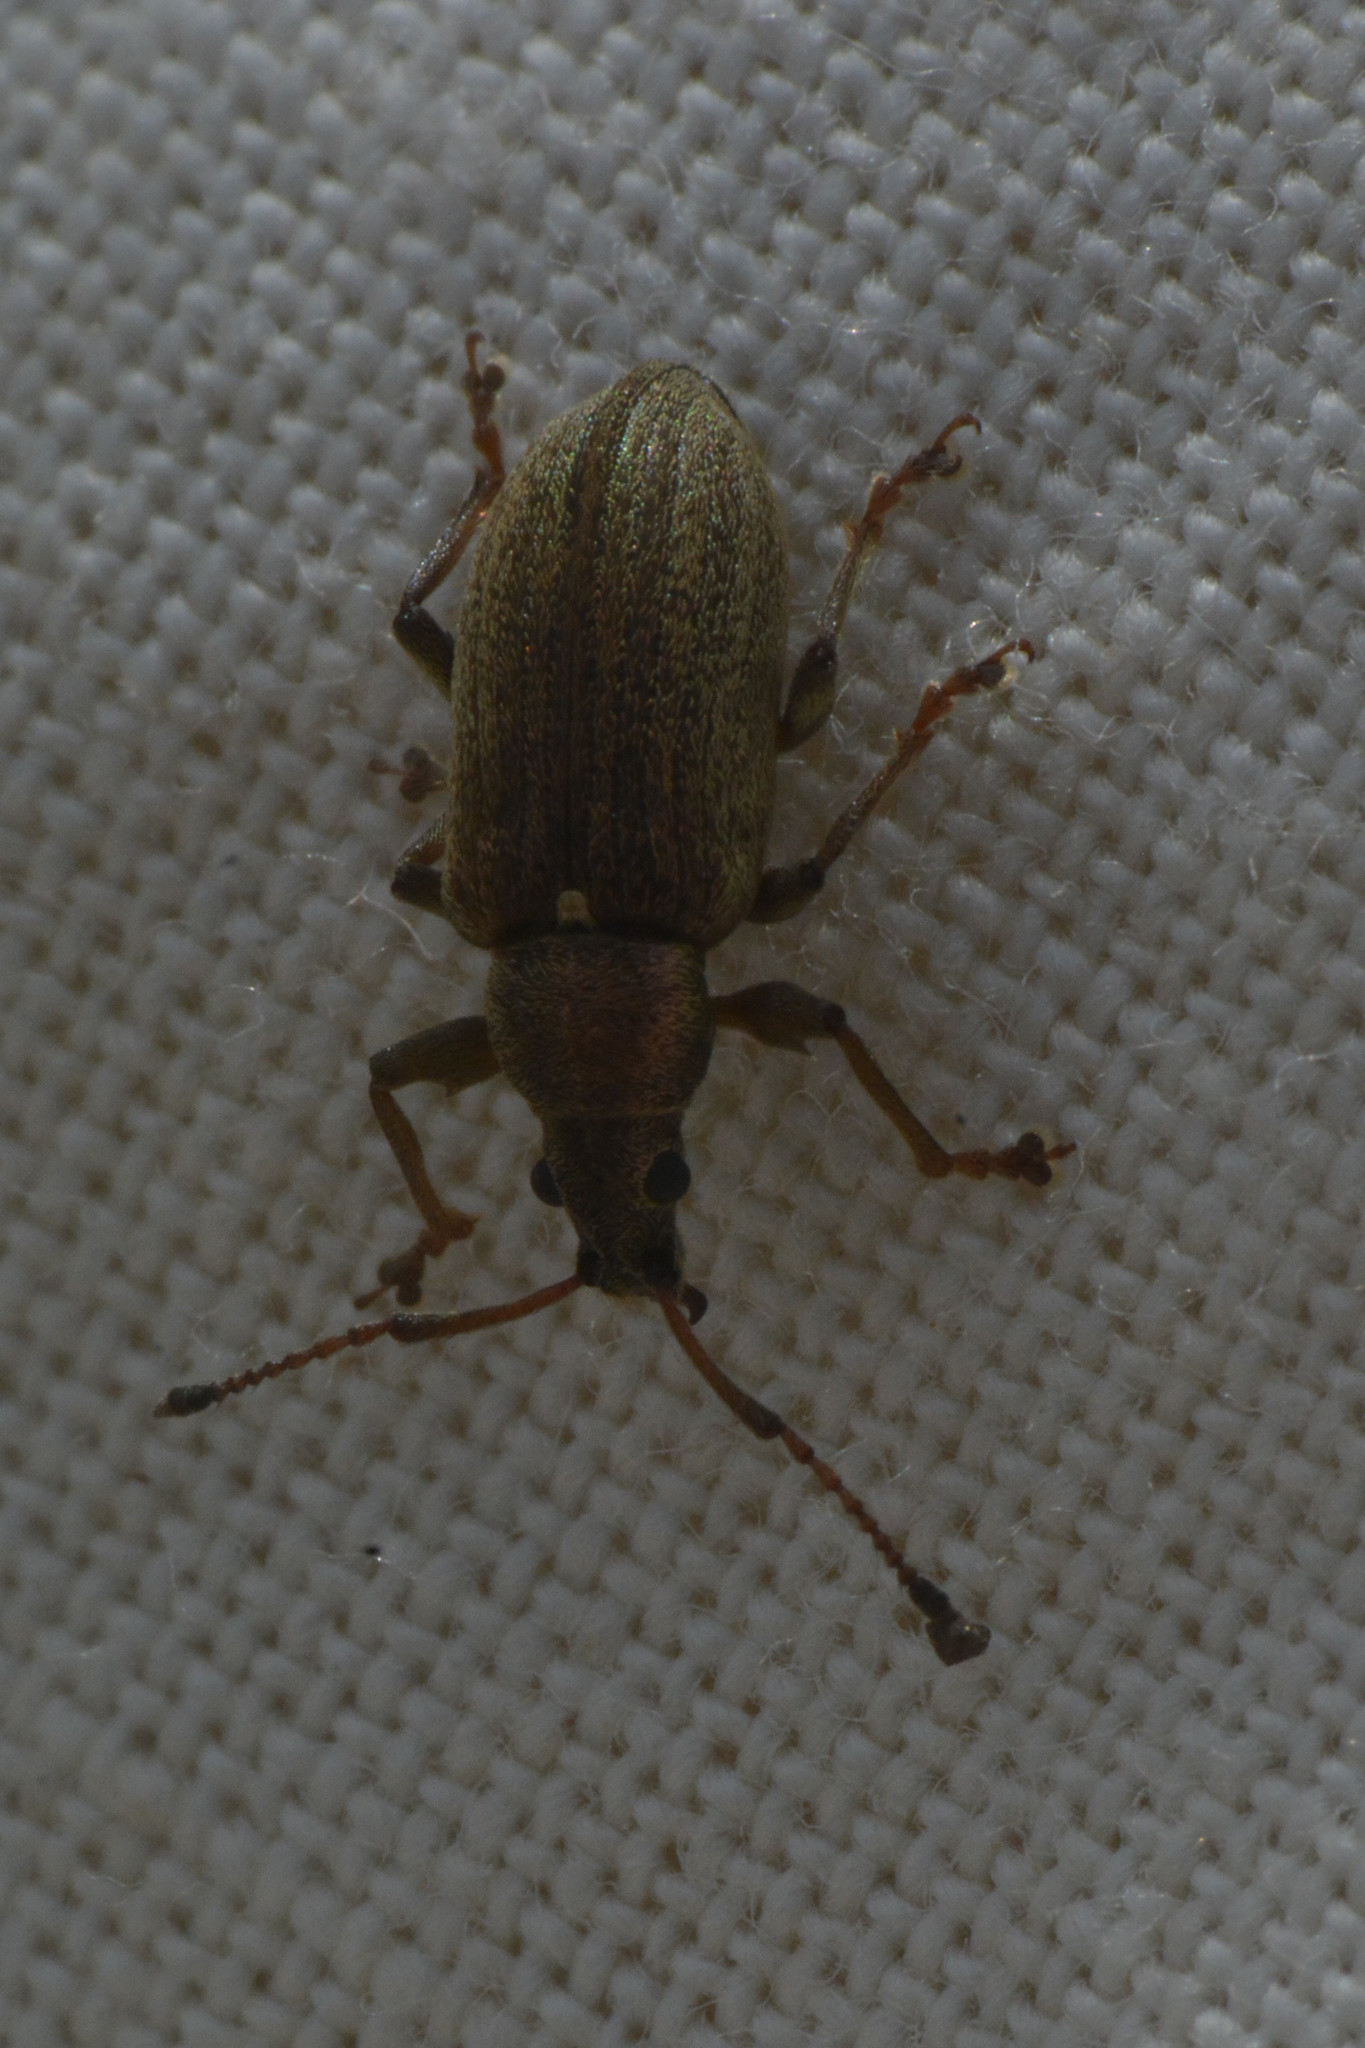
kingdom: Animalia
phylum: Arthropoda
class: Insecta
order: Coleoptera
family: Curculionidae
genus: Phyllobius
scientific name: Phyllobius pyri
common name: Common leaf weevil
